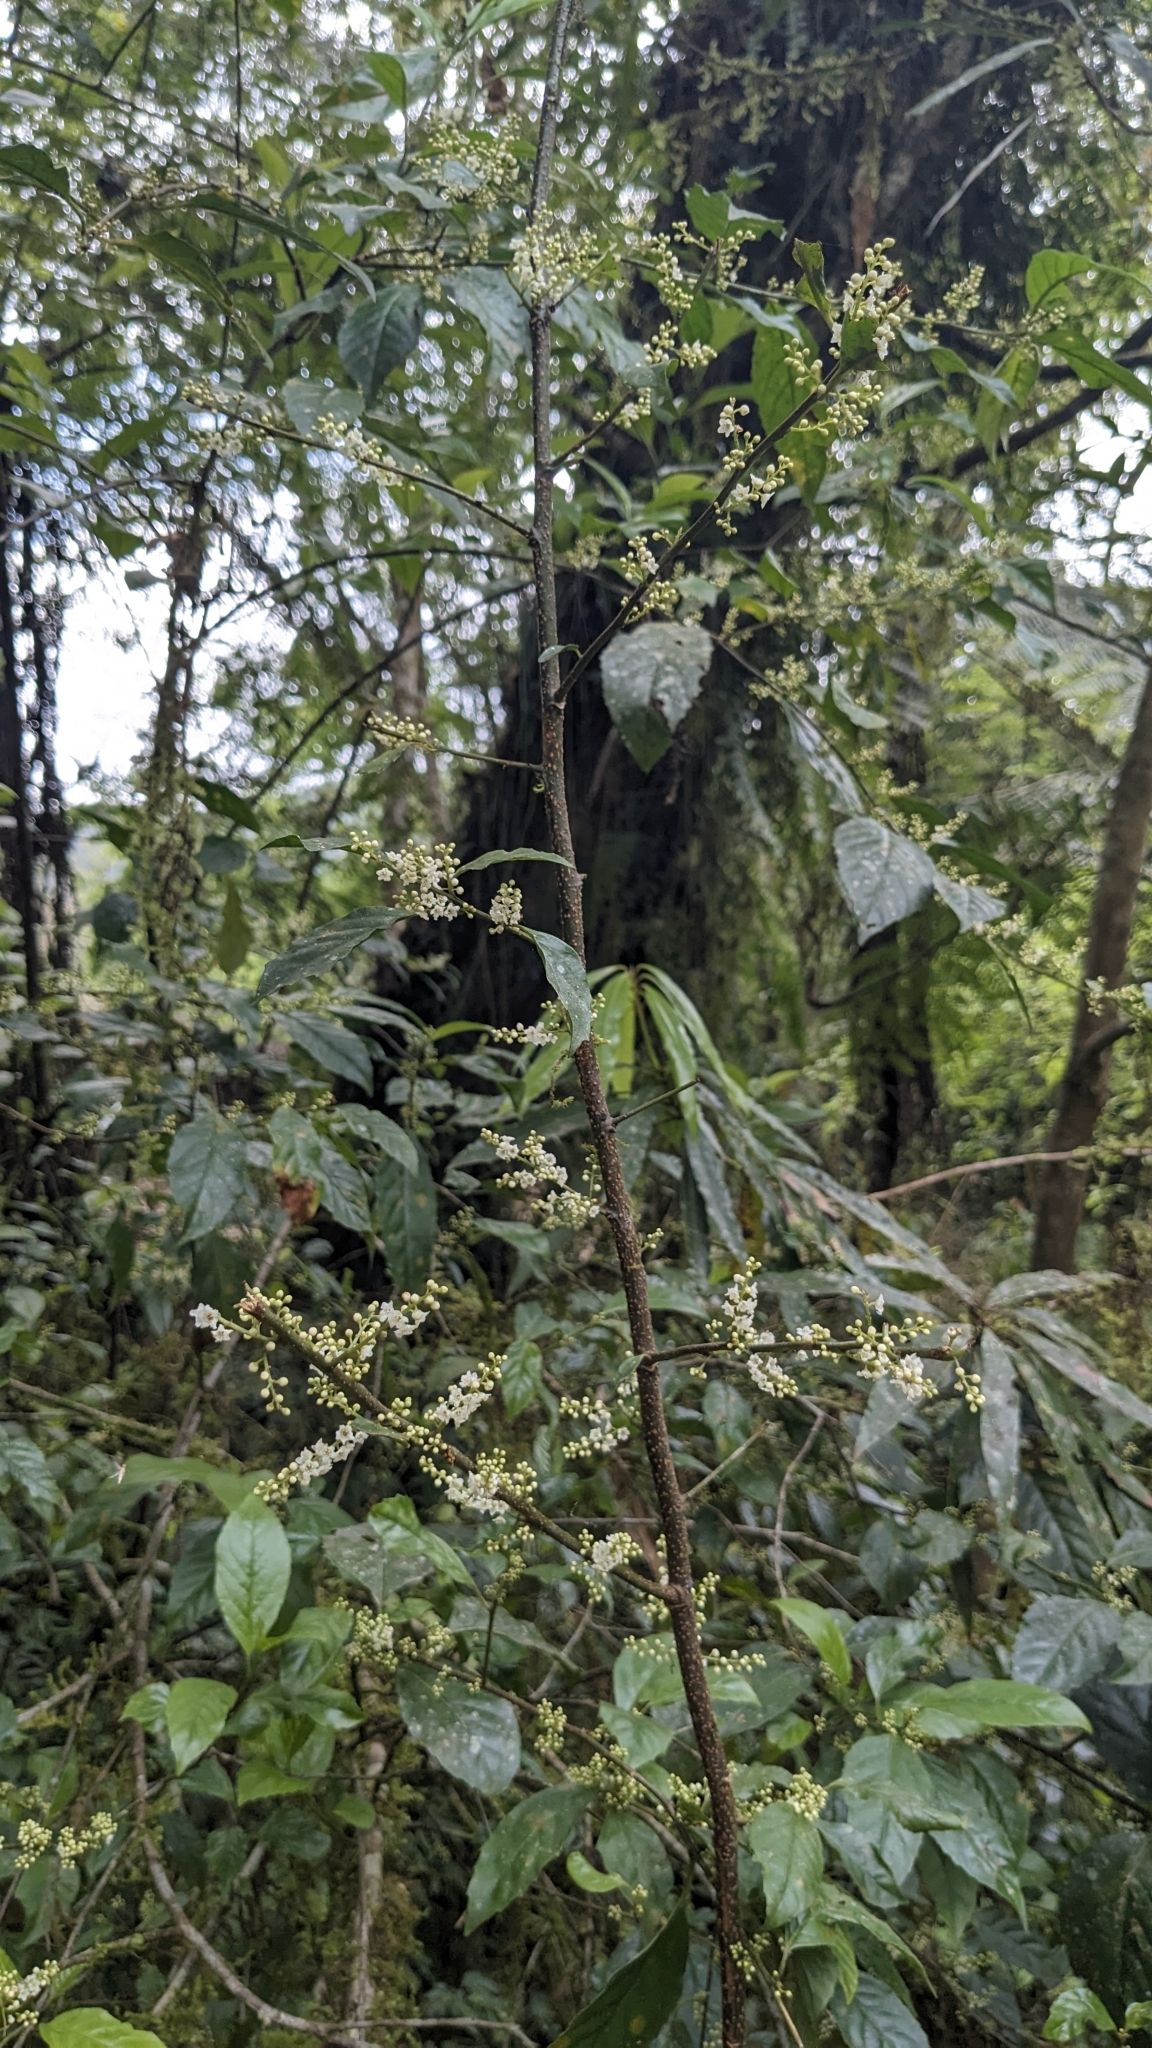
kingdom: Plantae
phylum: Tracheophyta
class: Magnoliopsida
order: Ericales
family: Primulaceae
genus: Maesa
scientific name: Maesa perlaria
